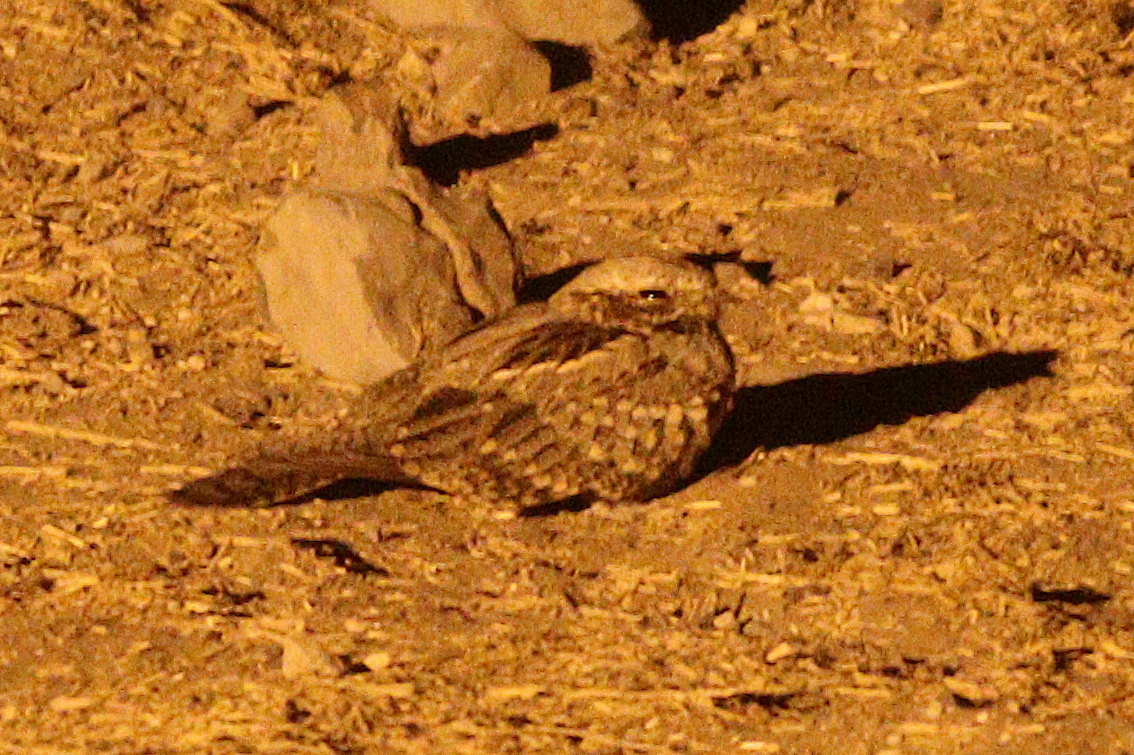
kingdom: Animalia
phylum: Chordata
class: Aves
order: Caprimulgiformes
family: Caprimulgidae
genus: Caprimulgus
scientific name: Caprimulgus rufigena
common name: Rufous-cheeked nightjar
